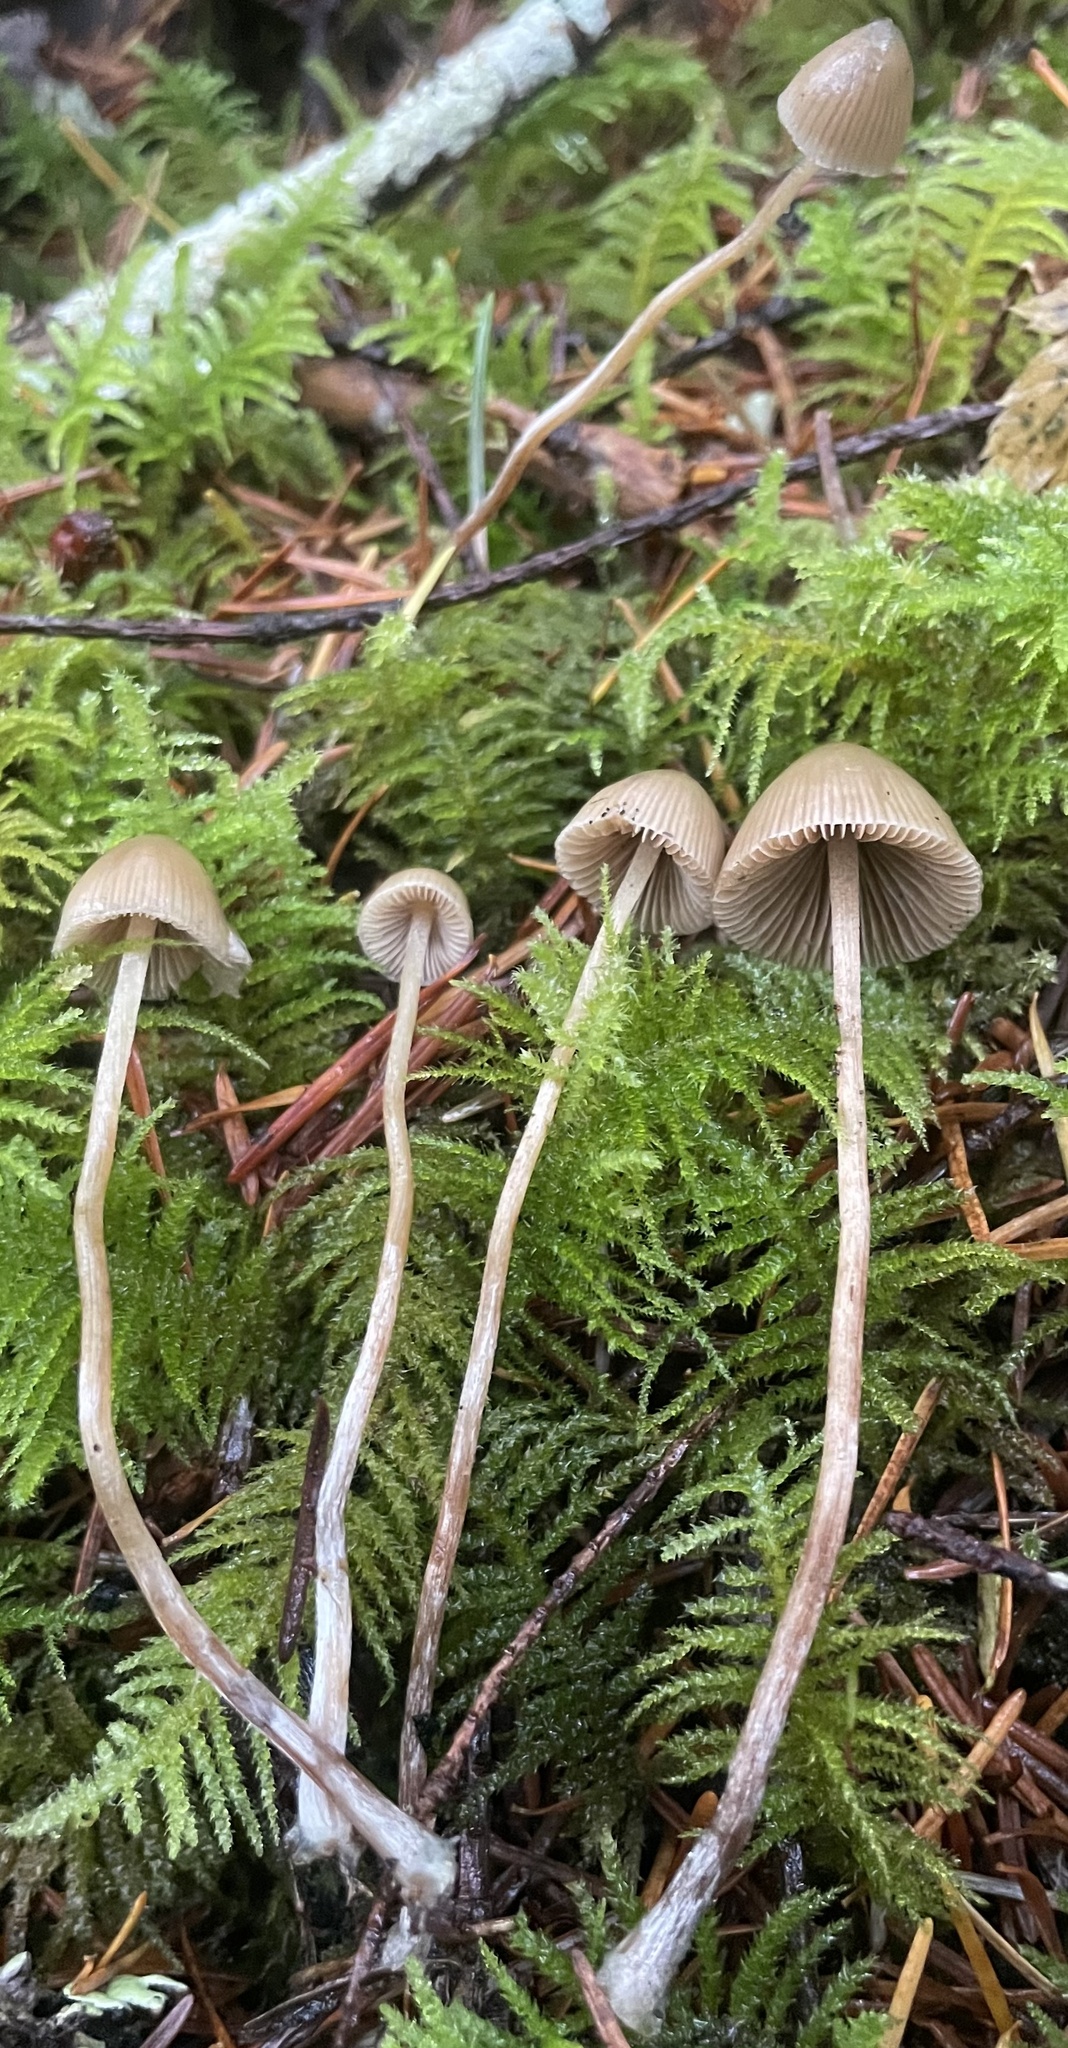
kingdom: Fungi
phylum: Basidiomycota
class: Agaricomycetes
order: Agaricales
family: Hymenogastraceae
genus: Psilocybe
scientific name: Psilocybe pelliculosa
